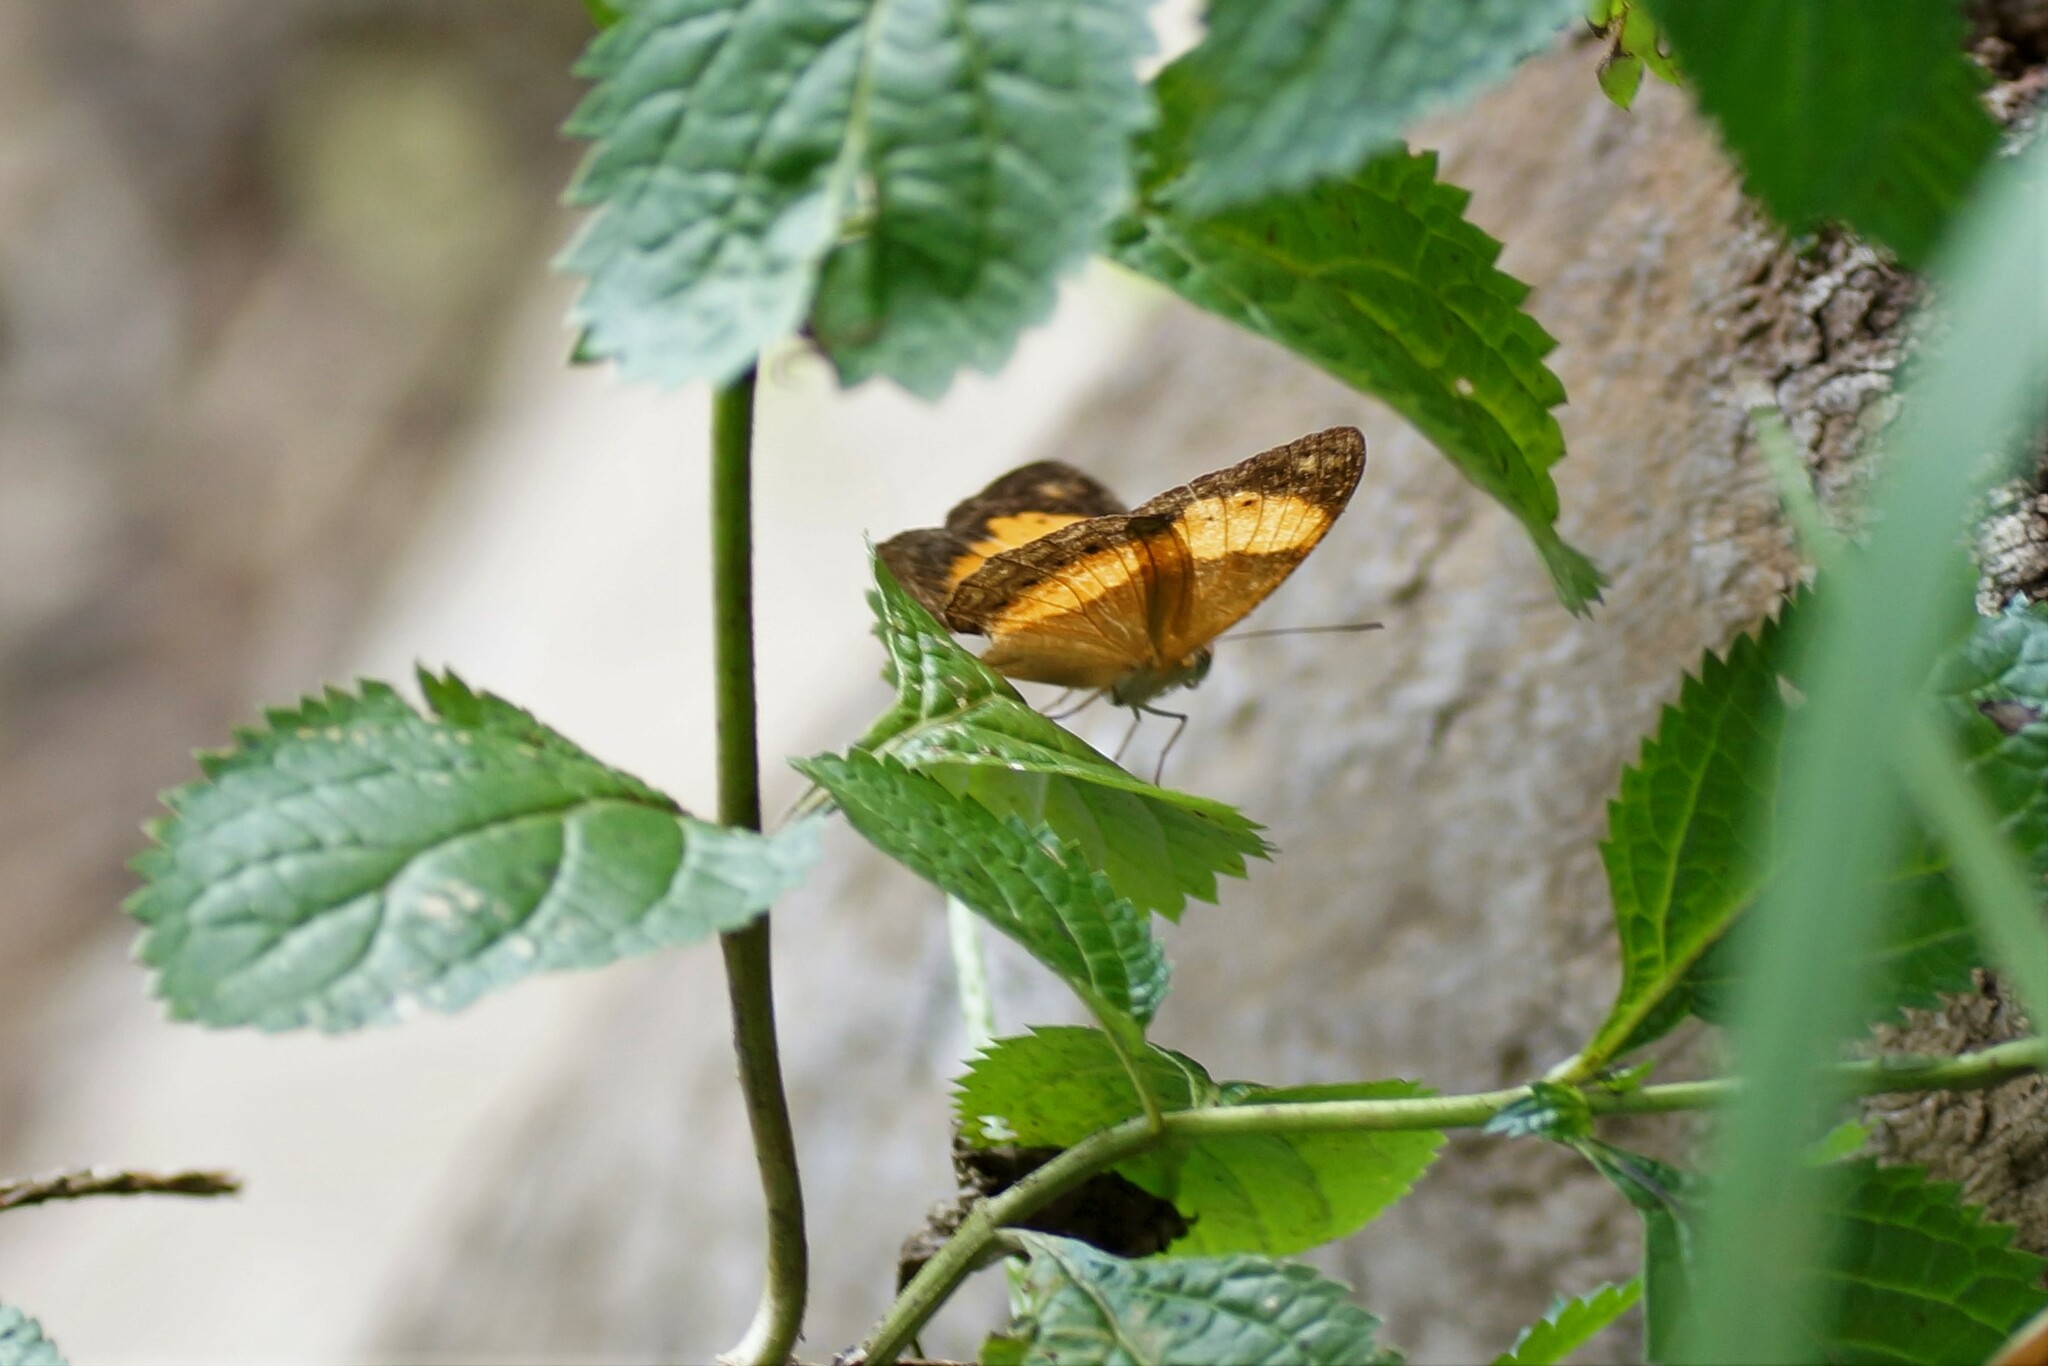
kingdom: Animalia
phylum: Arthropoda
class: Insecta
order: Lepidoptera
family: Nymphalidae
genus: Cupha
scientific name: Cupha prosope
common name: Bordered rustic
